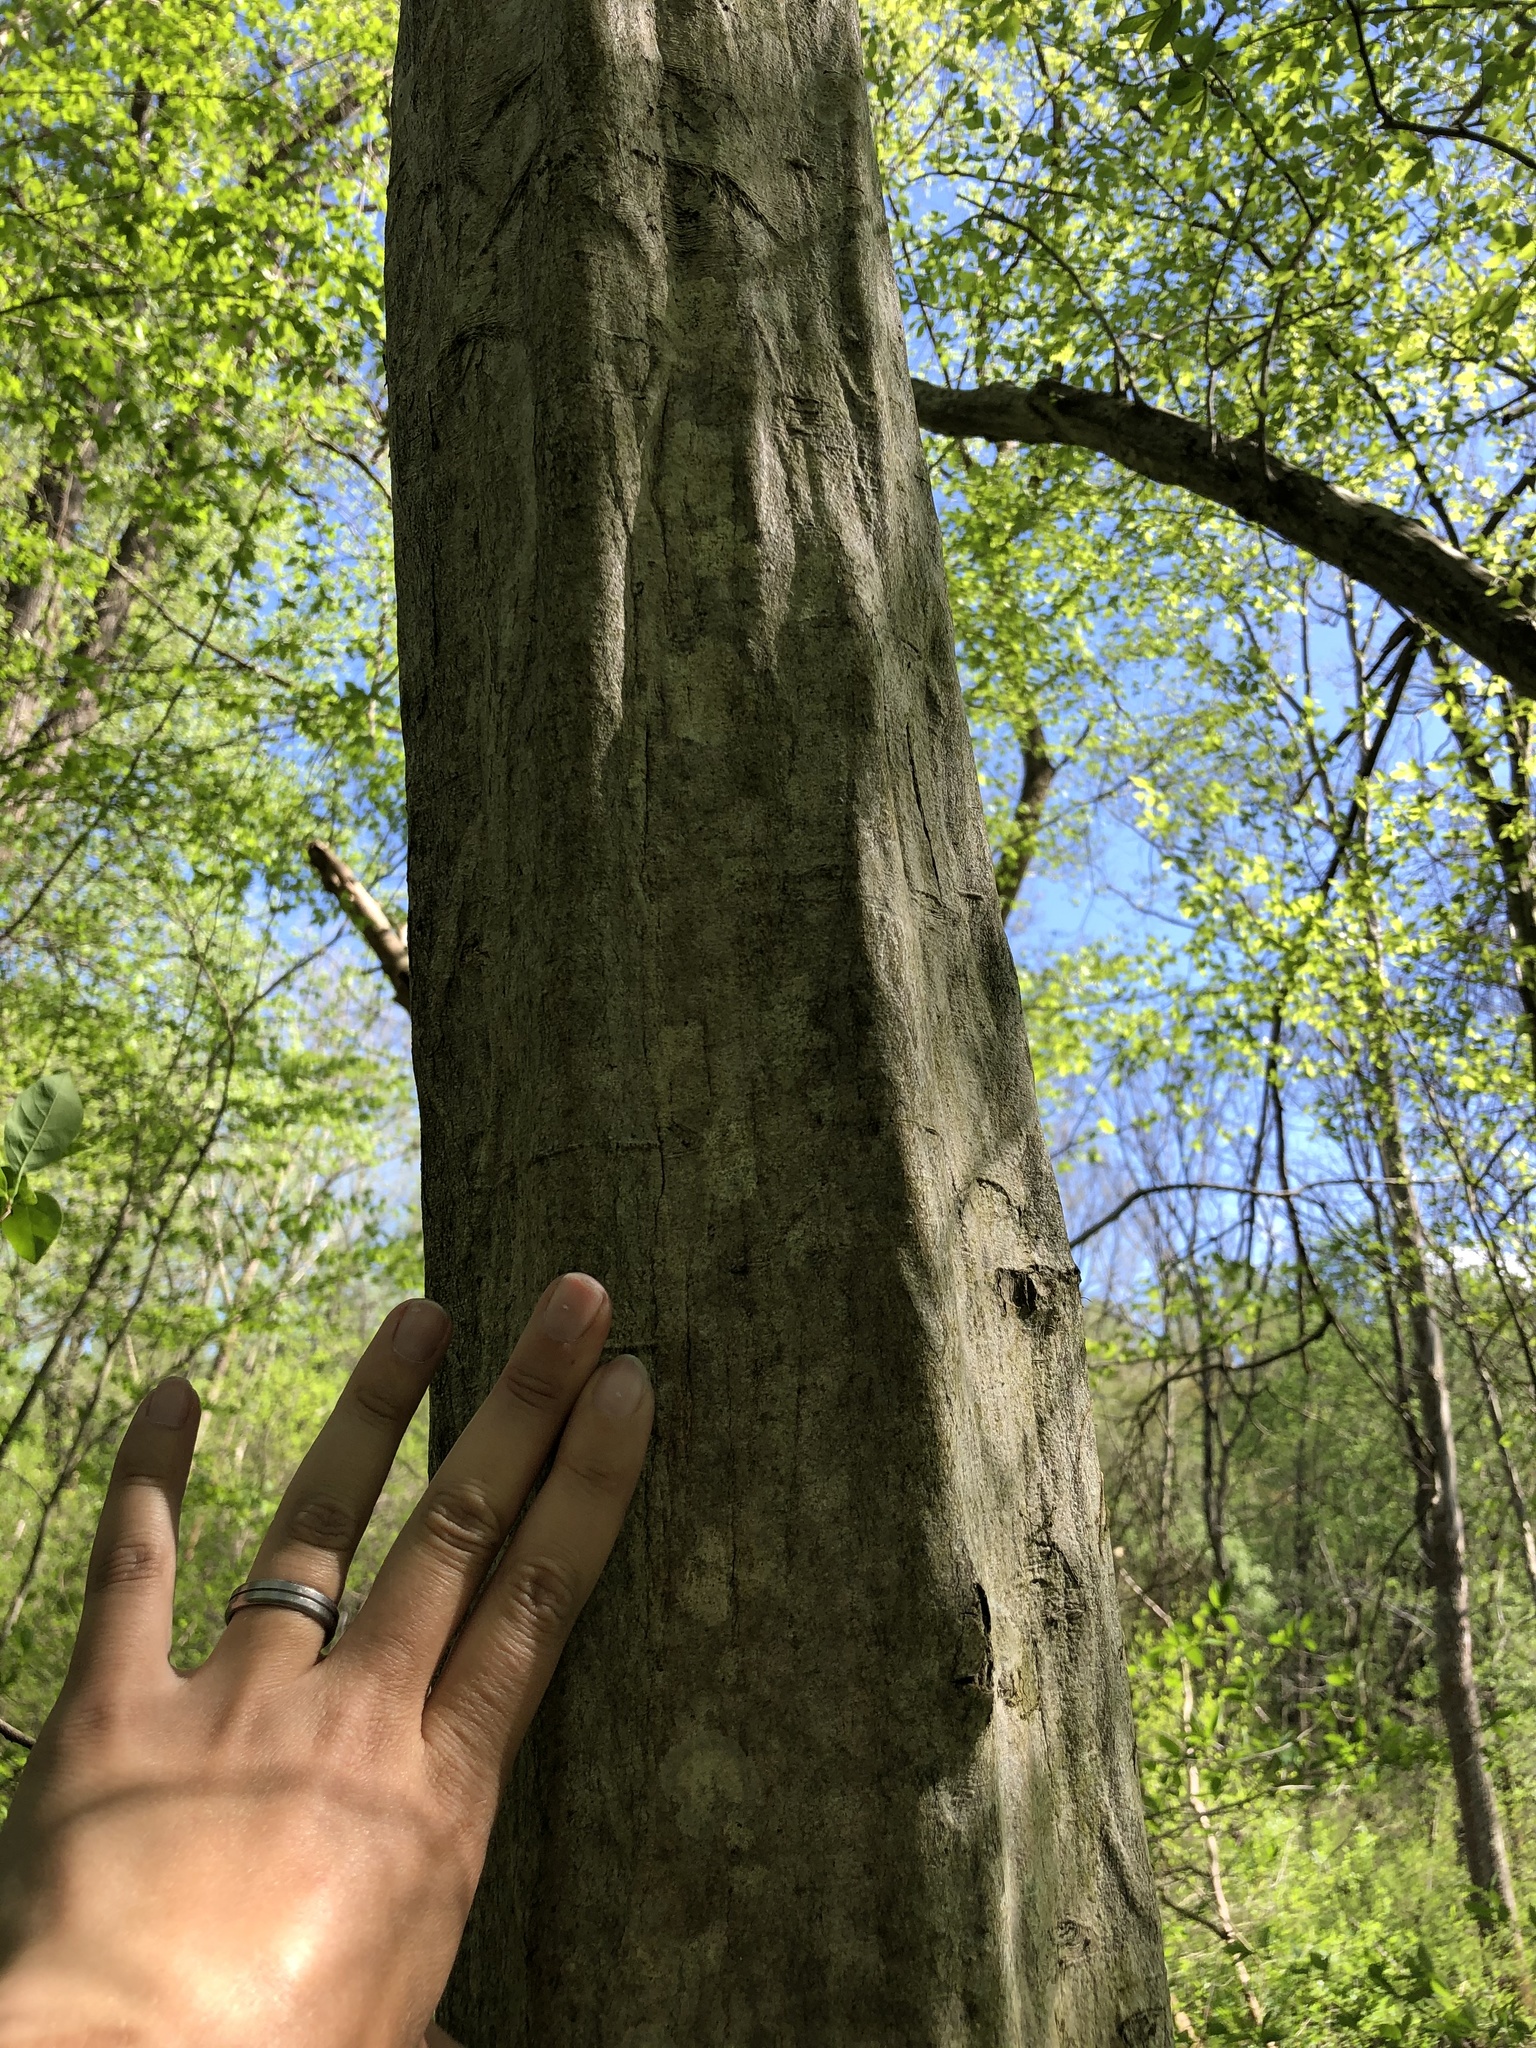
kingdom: Plantae
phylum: Tracheophyta
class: Magnoliopsida
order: Fagales
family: Betulaceae
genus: Carpinus
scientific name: Carpinus caroliniana
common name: American hornbeam
